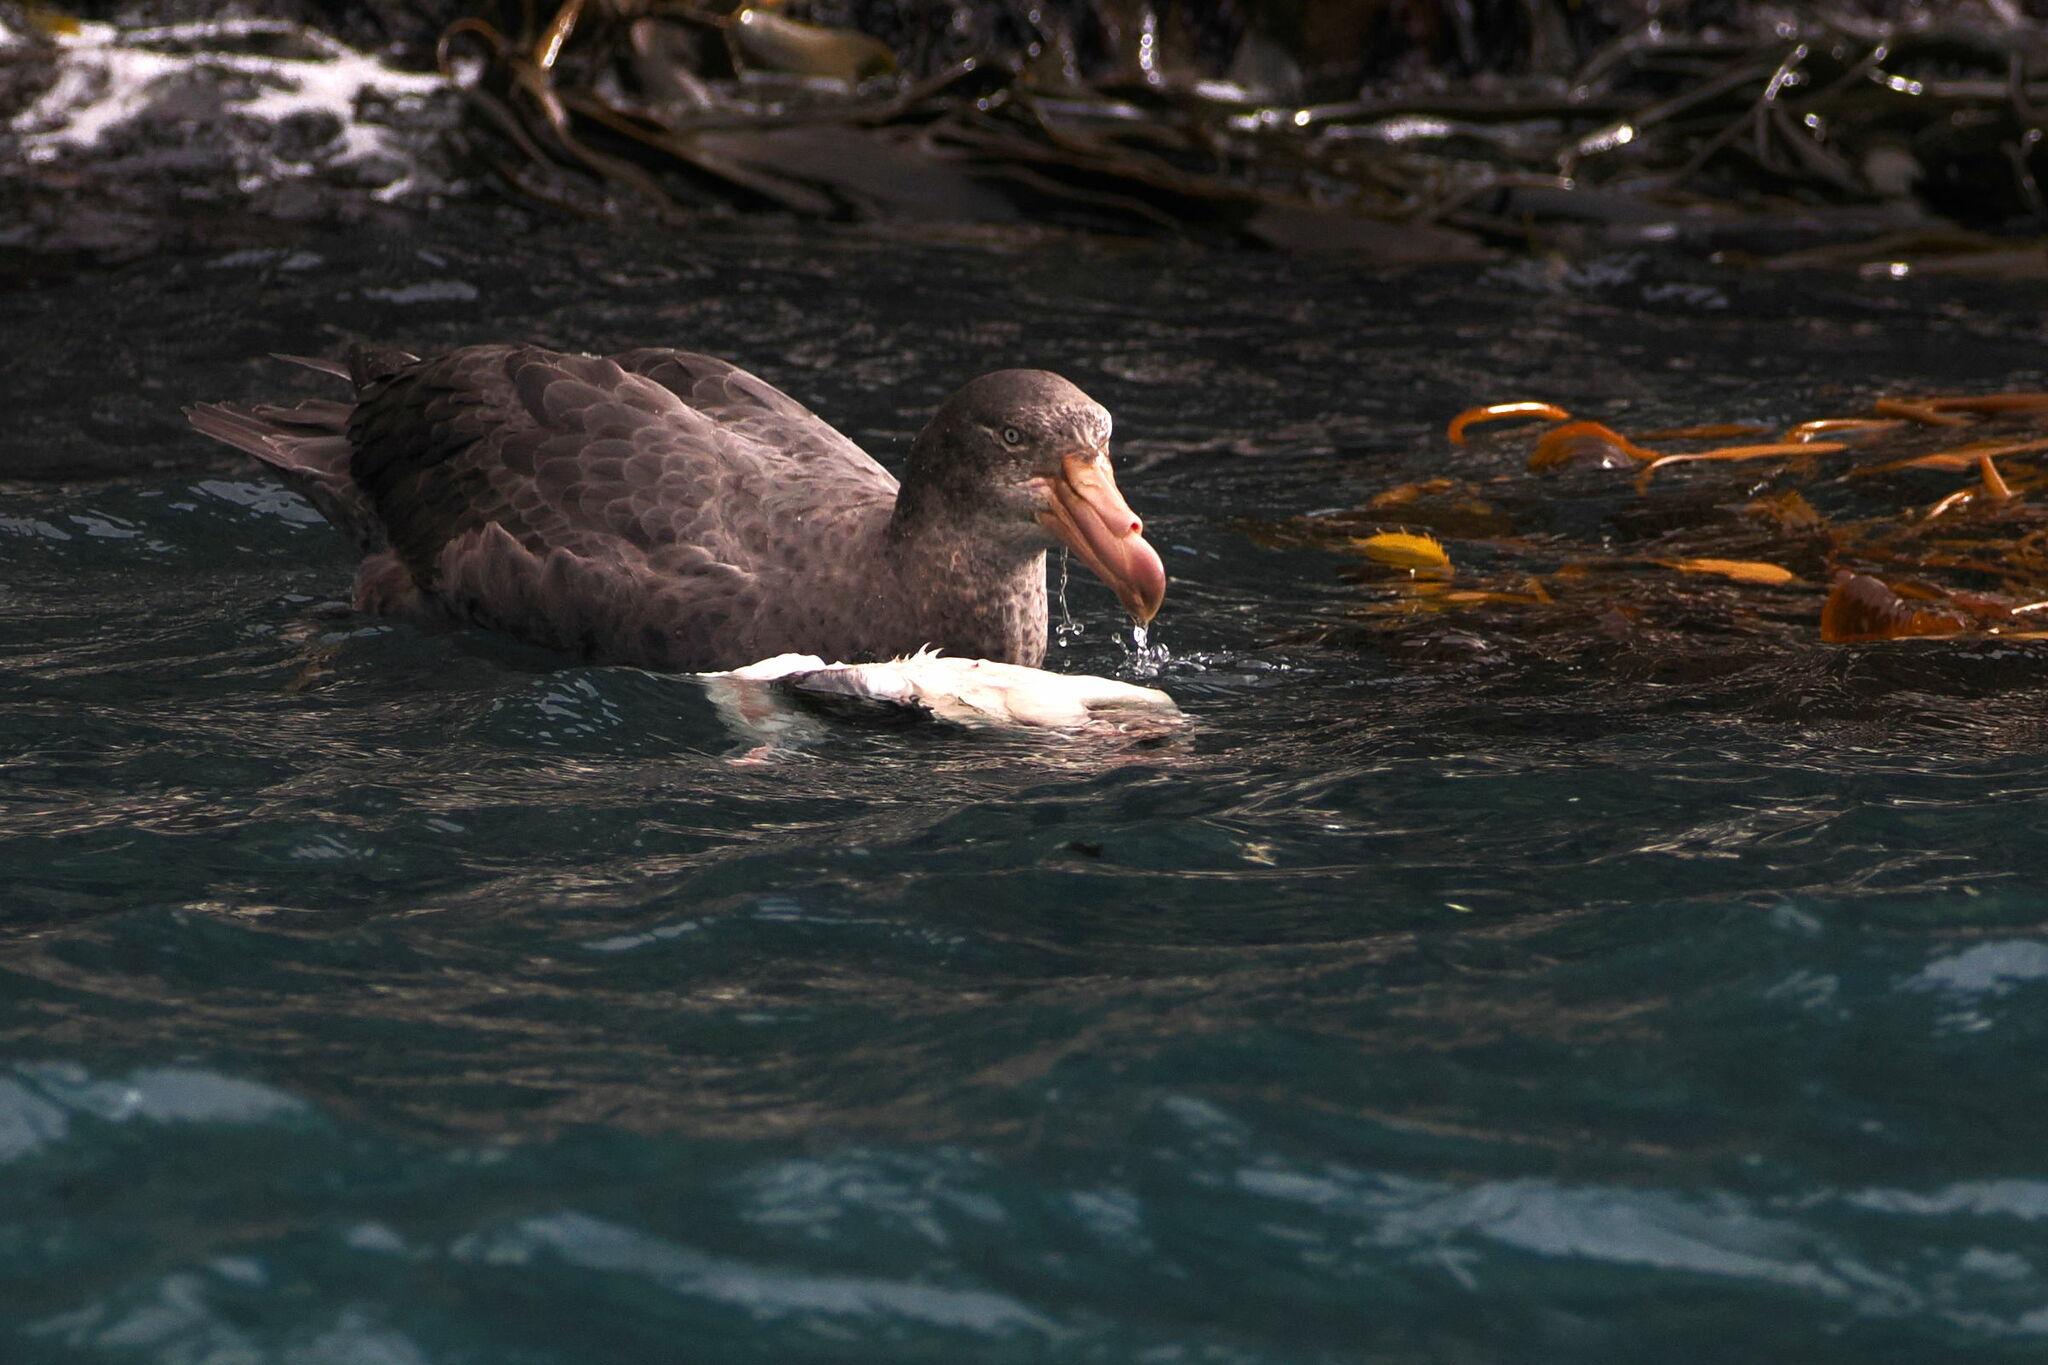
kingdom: Animalia
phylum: Chordata
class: Aves
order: Procellariiformes
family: Procellariidae
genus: Macronectes
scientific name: Macronectes halli
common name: Northern giant petrel
